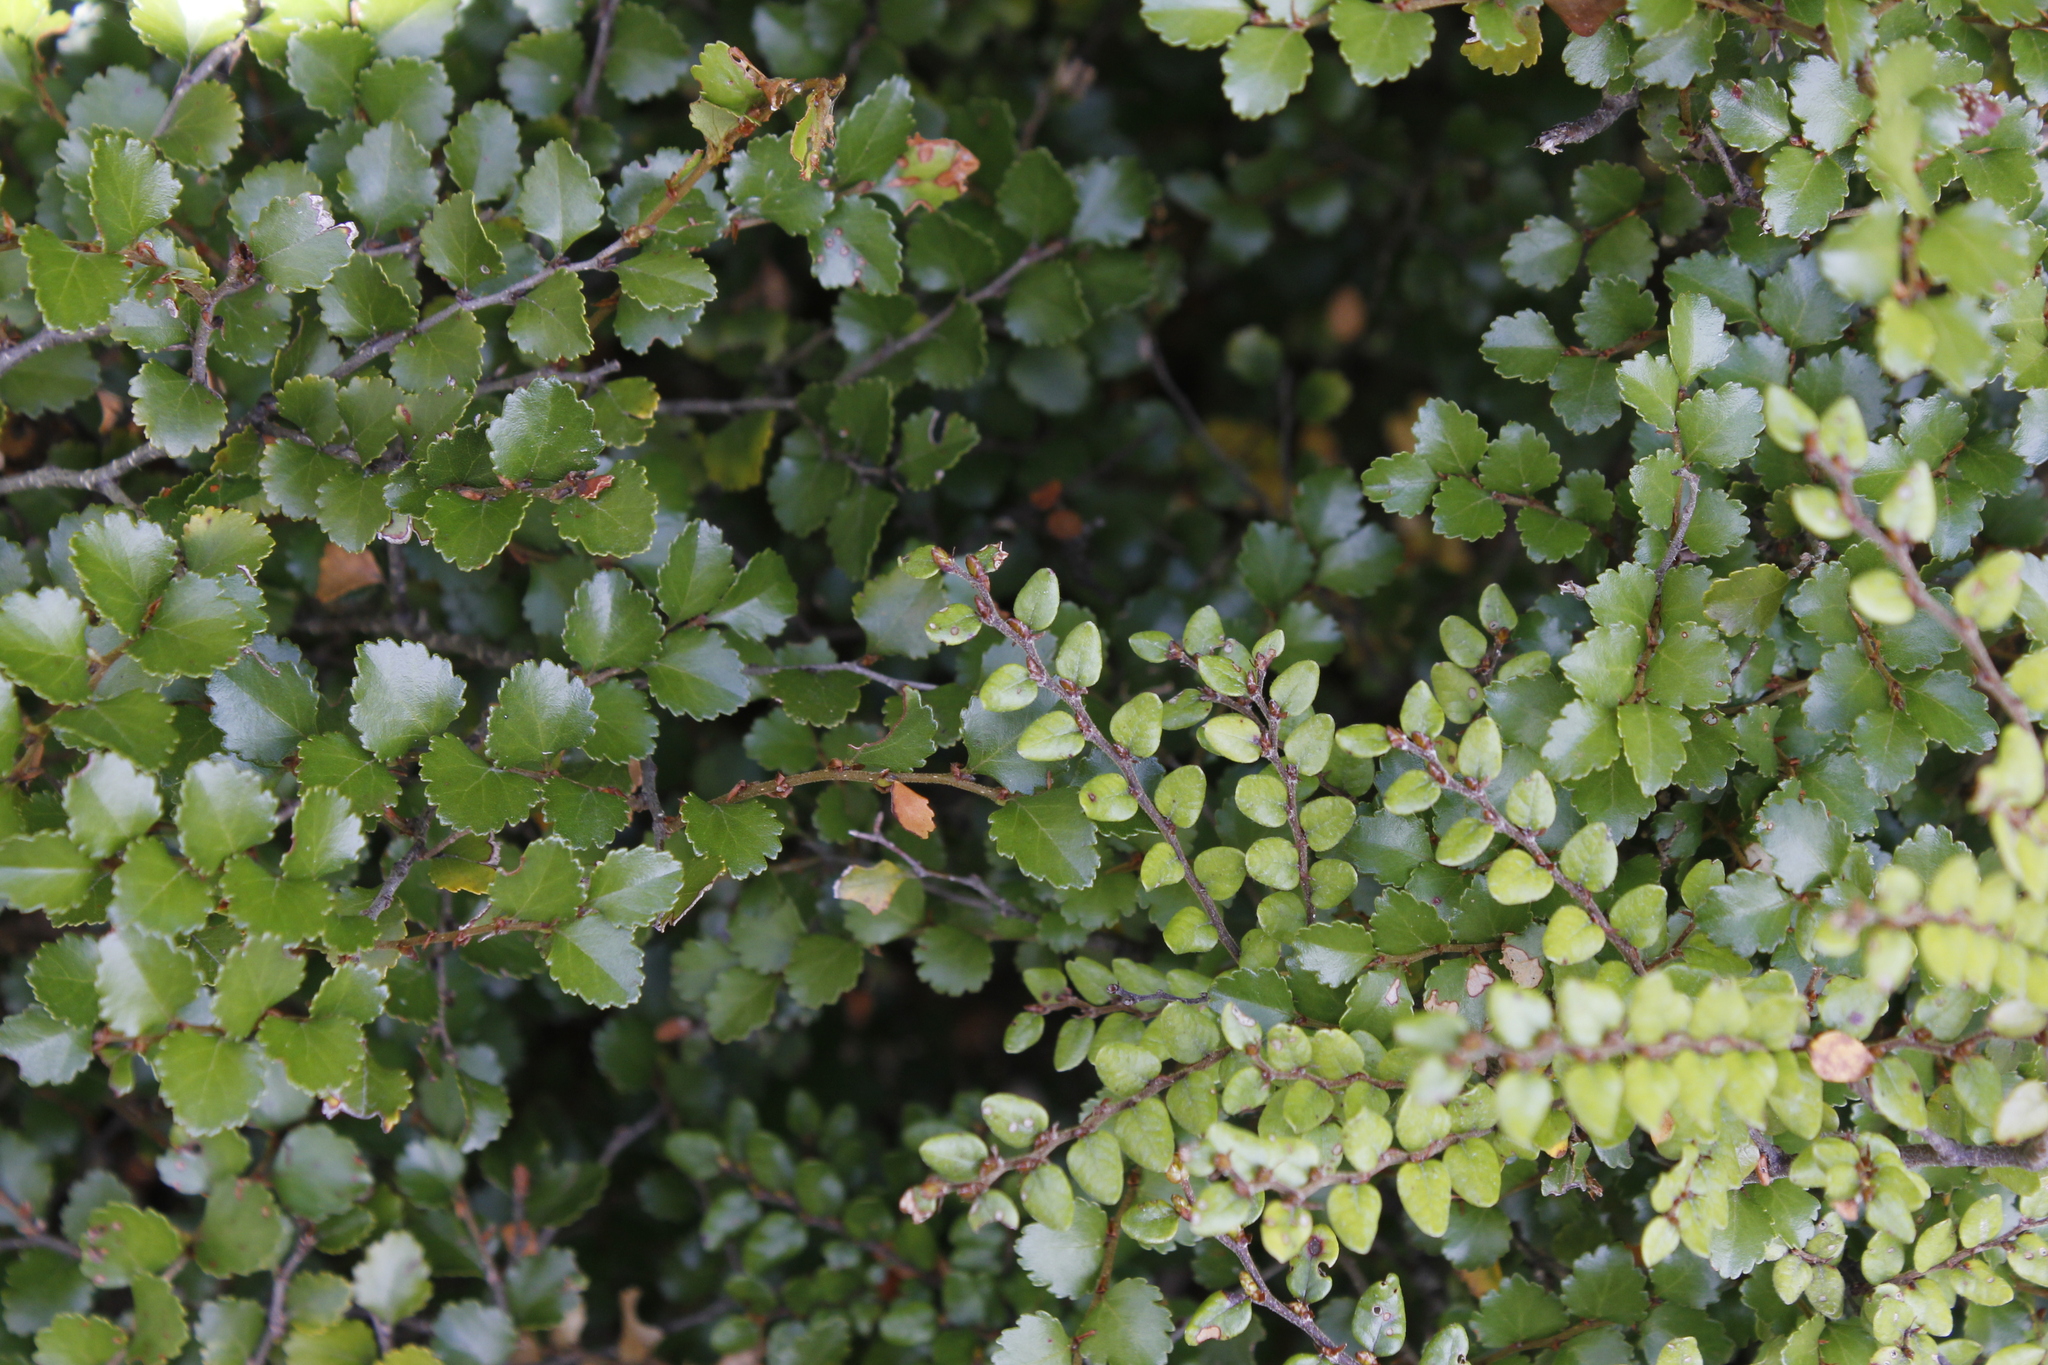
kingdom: Plantae
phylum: Tracheophyta
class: Magnoliopsida
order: Fagales
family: Nothofagaceae
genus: Nothofagus
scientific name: Nothofagus menziesii
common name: Silver beech
